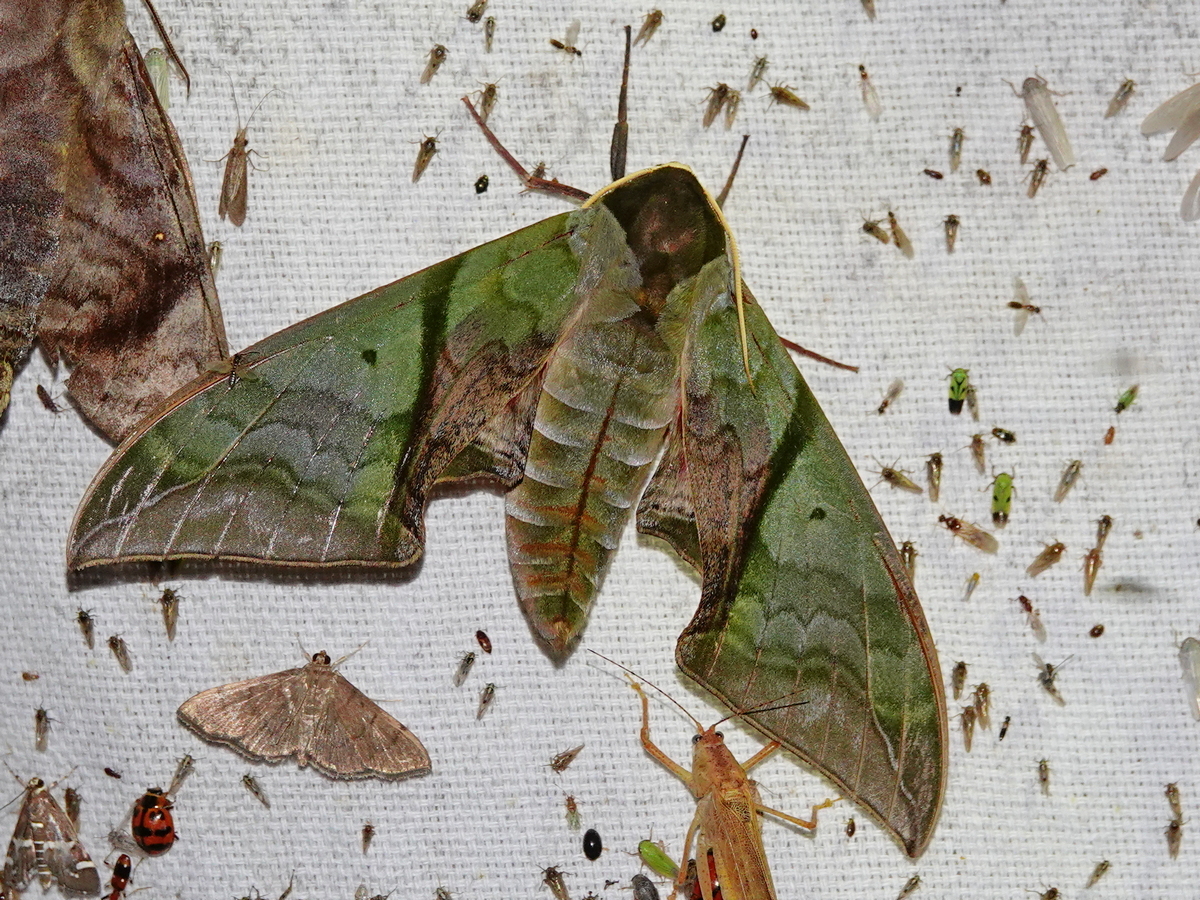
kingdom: Animalia
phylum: Arthropoda
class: Insecta
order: Lepidoptera
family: Sphingidae
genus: Callambulyx
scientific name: Callambulyx rubricosa
